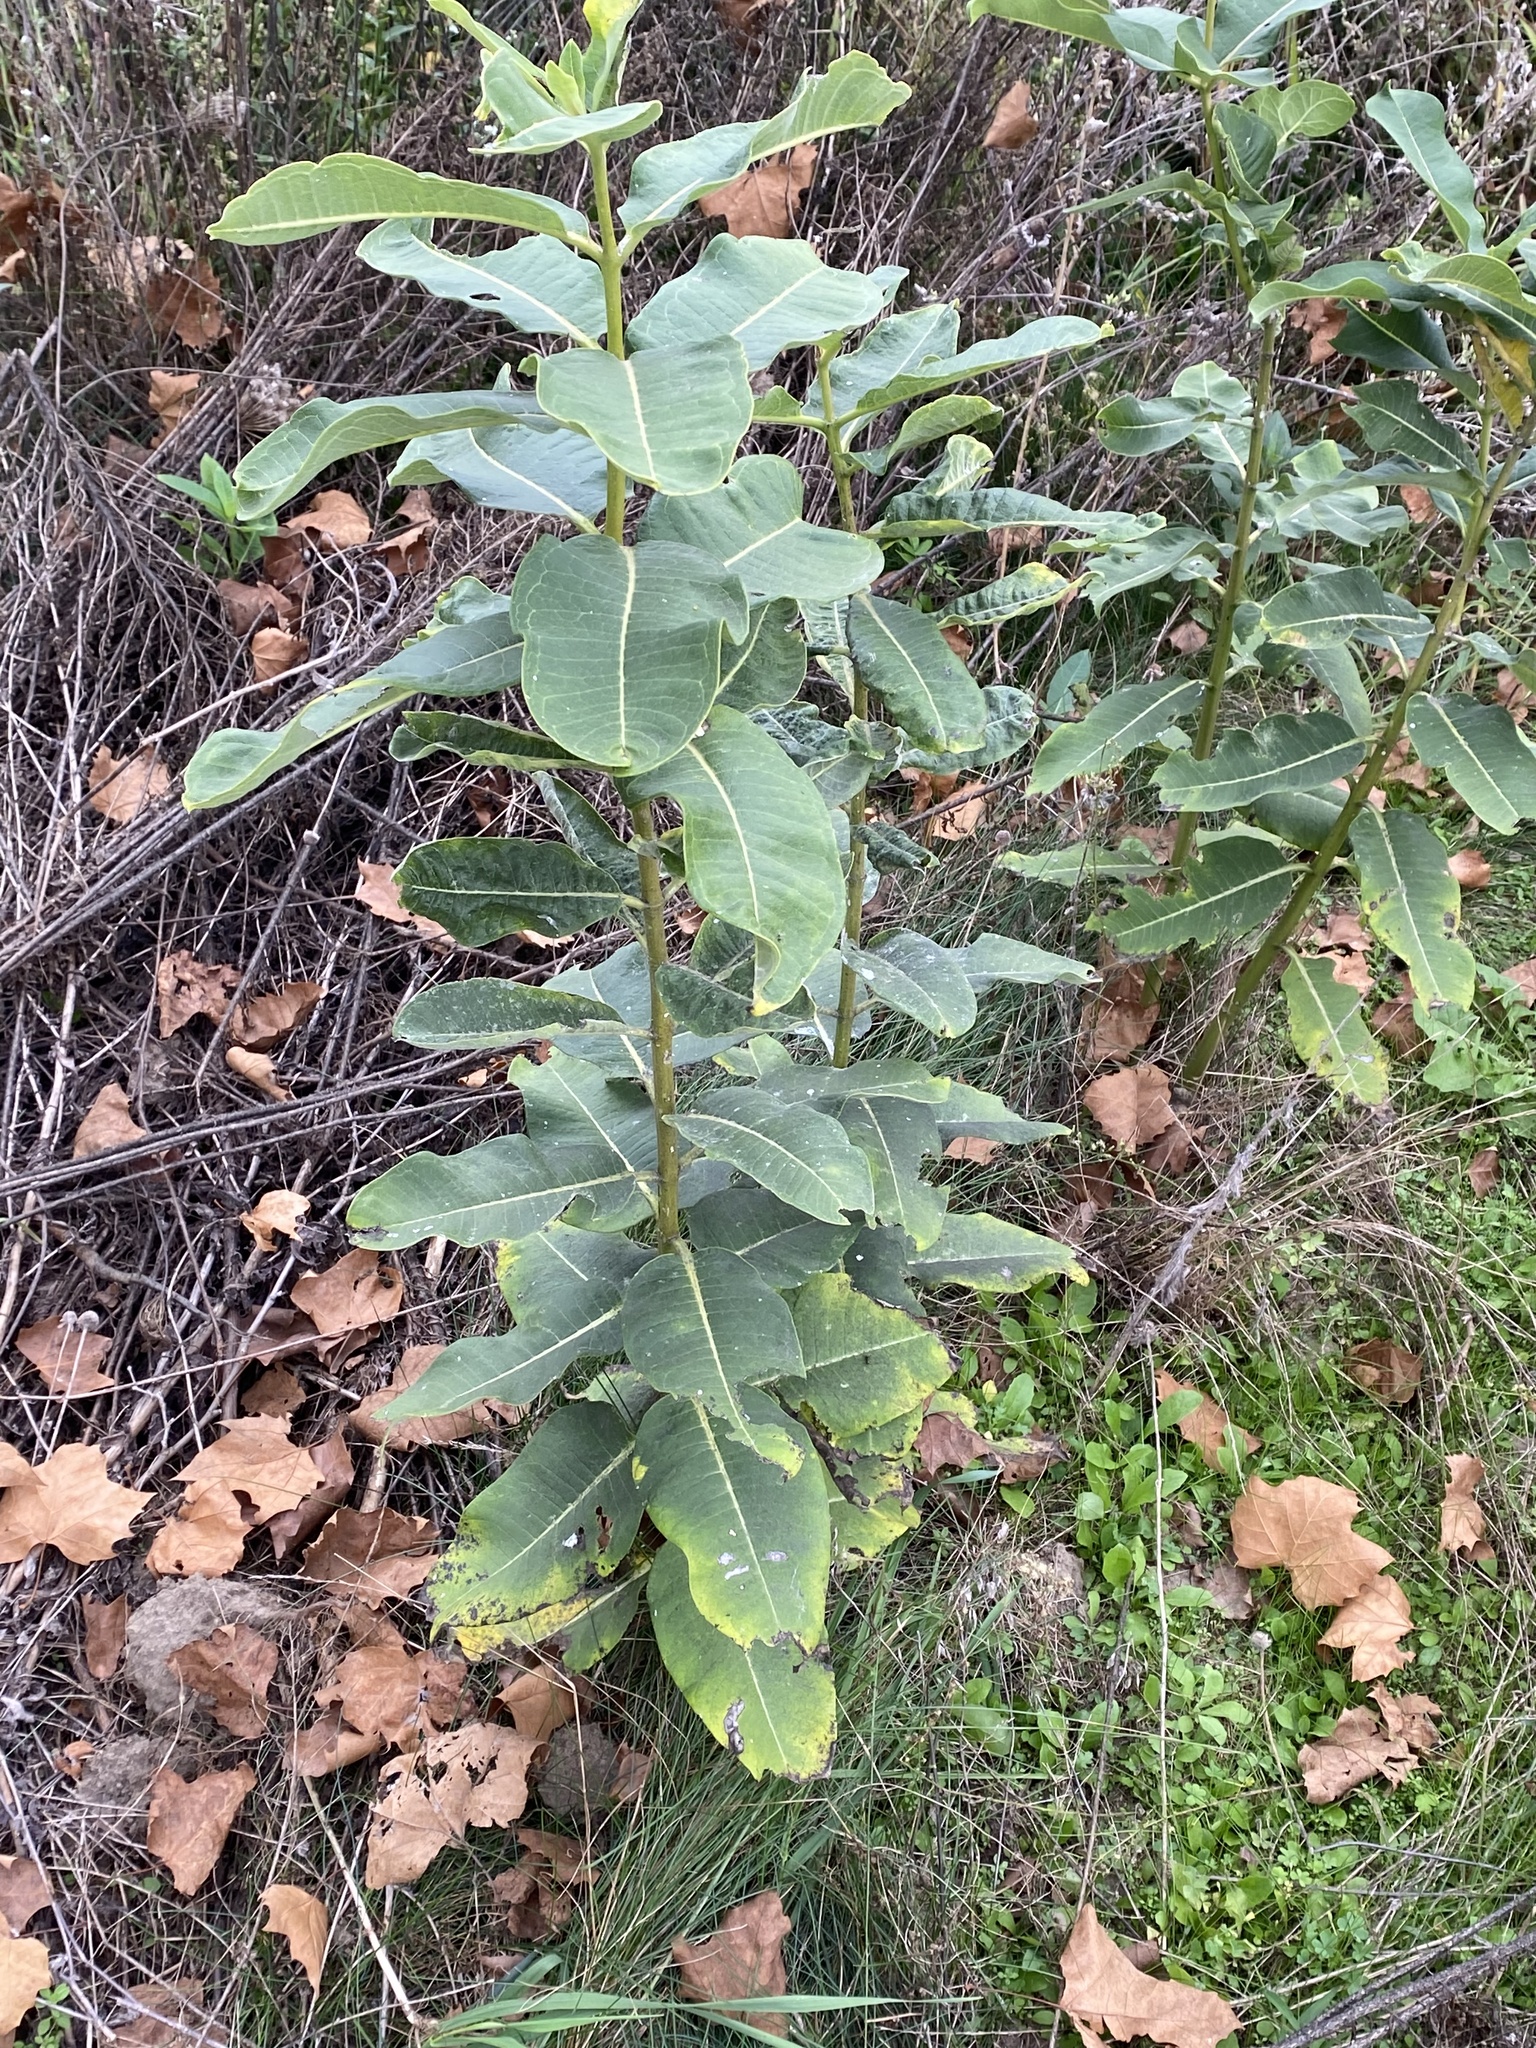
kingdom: Plantae
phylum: Tracheophyta
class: Magnoliopsida
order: Gentianales
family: Apocynaceae
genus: Asclepias
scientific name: Asclepias syriaca
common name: Common milkweed
